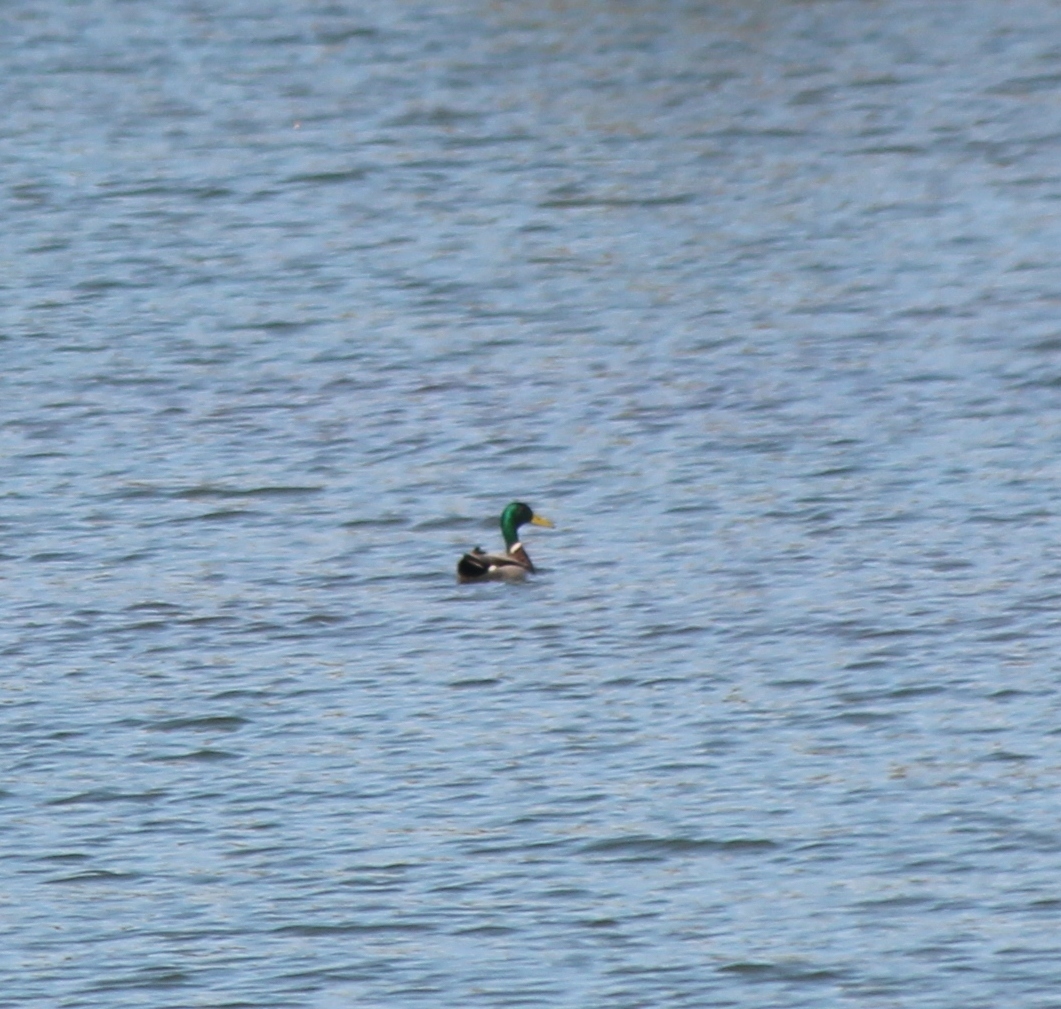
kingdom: Animalia
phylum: Chordata
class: Aves
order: Anseriformes
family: Anatidae
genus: Anas
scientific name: Anas platyrhynchos
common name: Mallard
